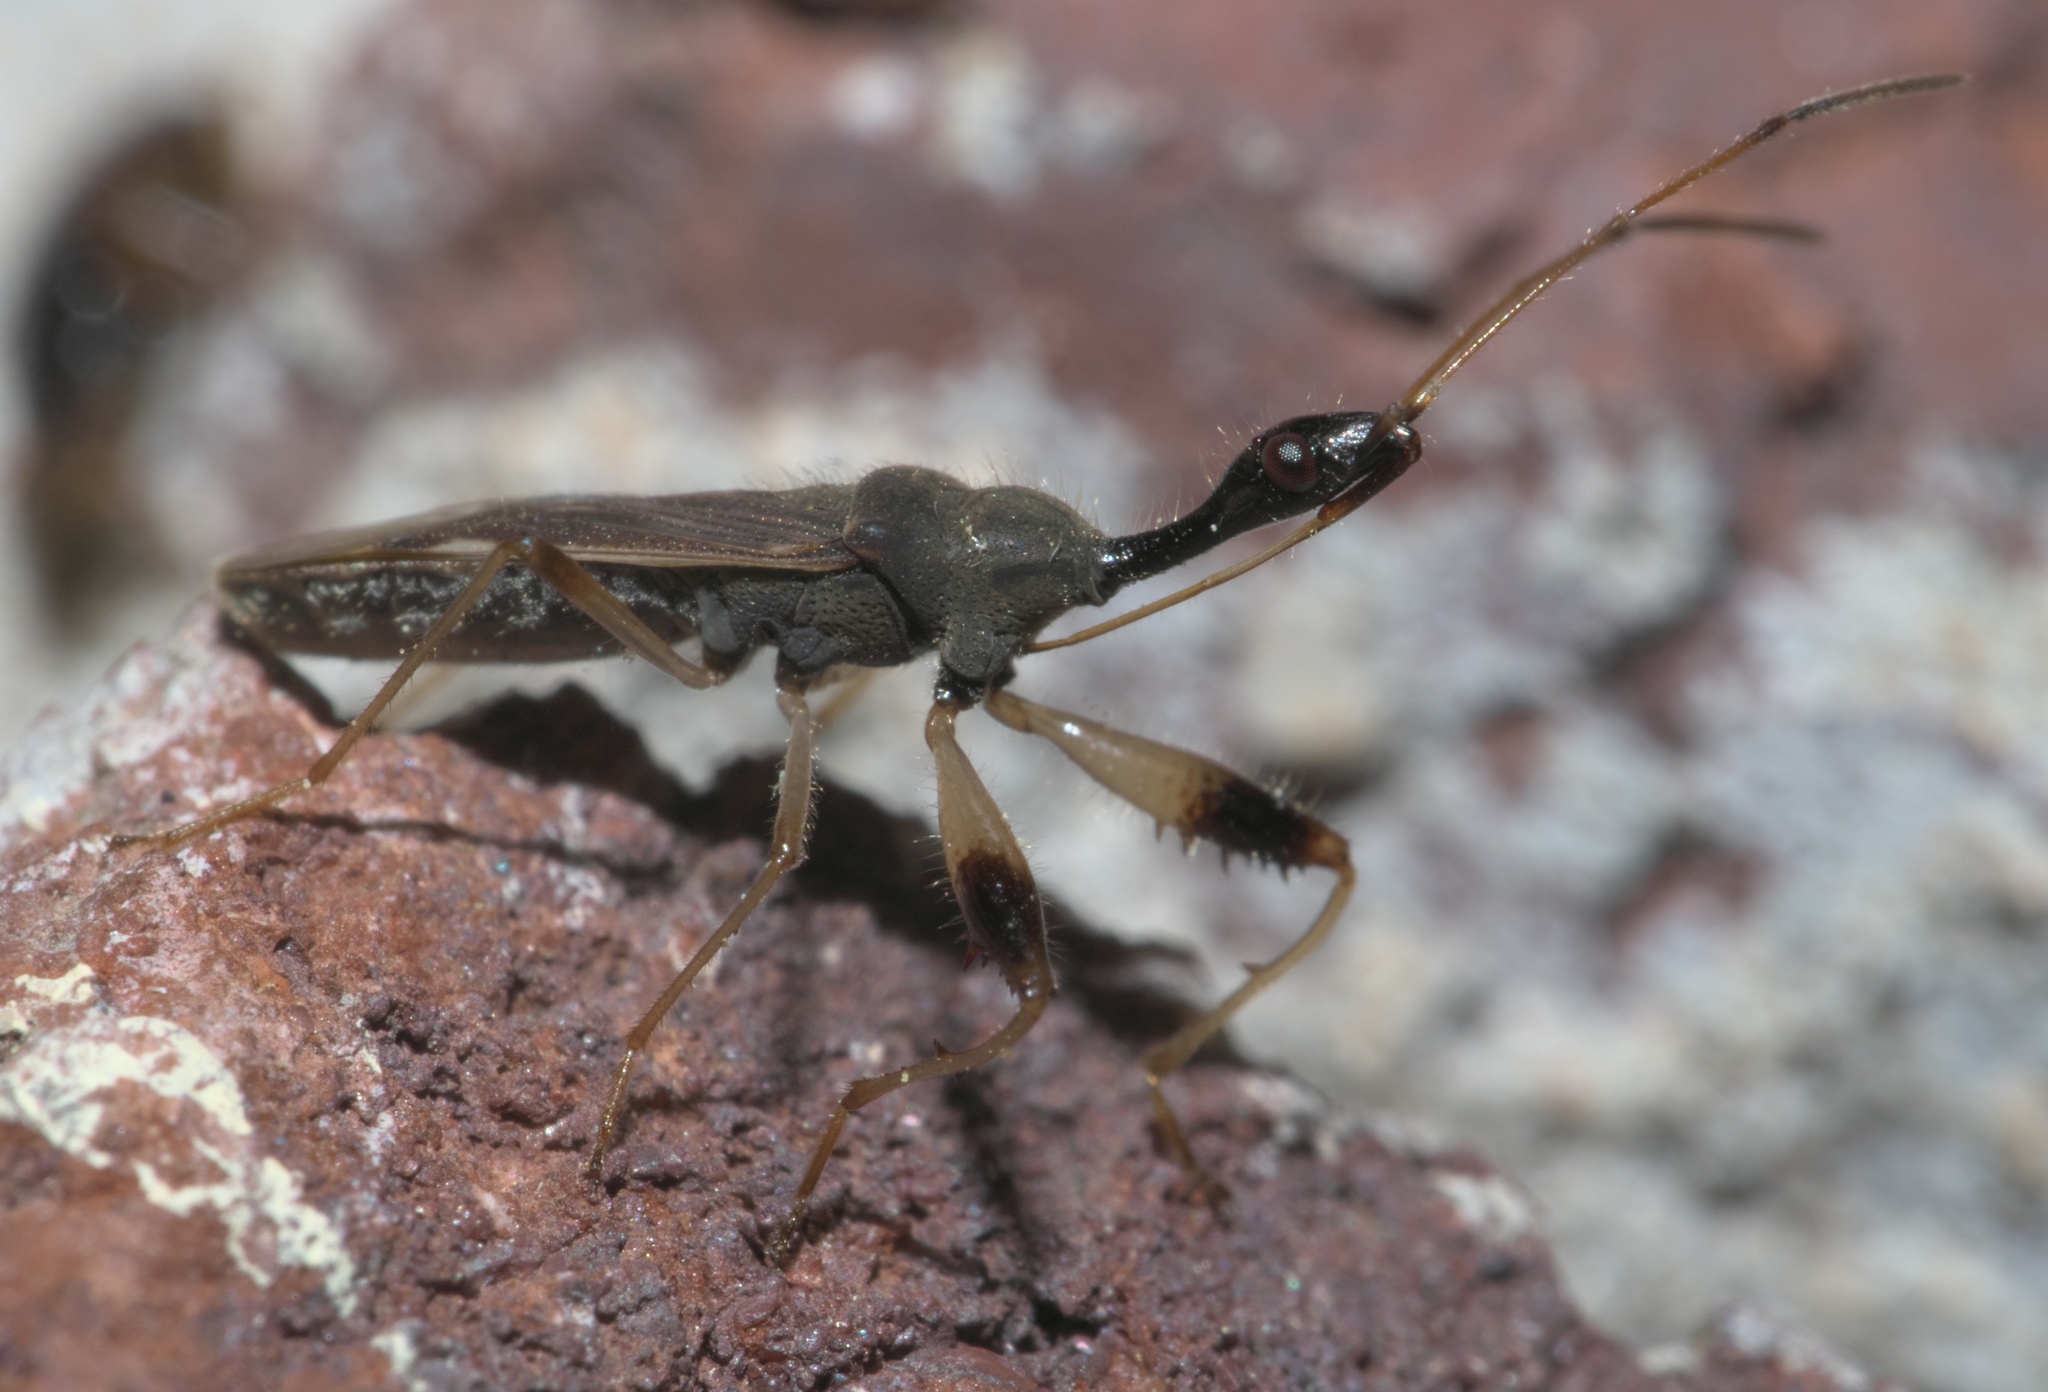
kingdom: Animalia
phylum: Arthropoda
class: Insecta
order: Hemiptera
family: Rhyparochromidae
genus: Myodocha
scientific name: Myodocha serripes
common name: Long-necked seed bug
